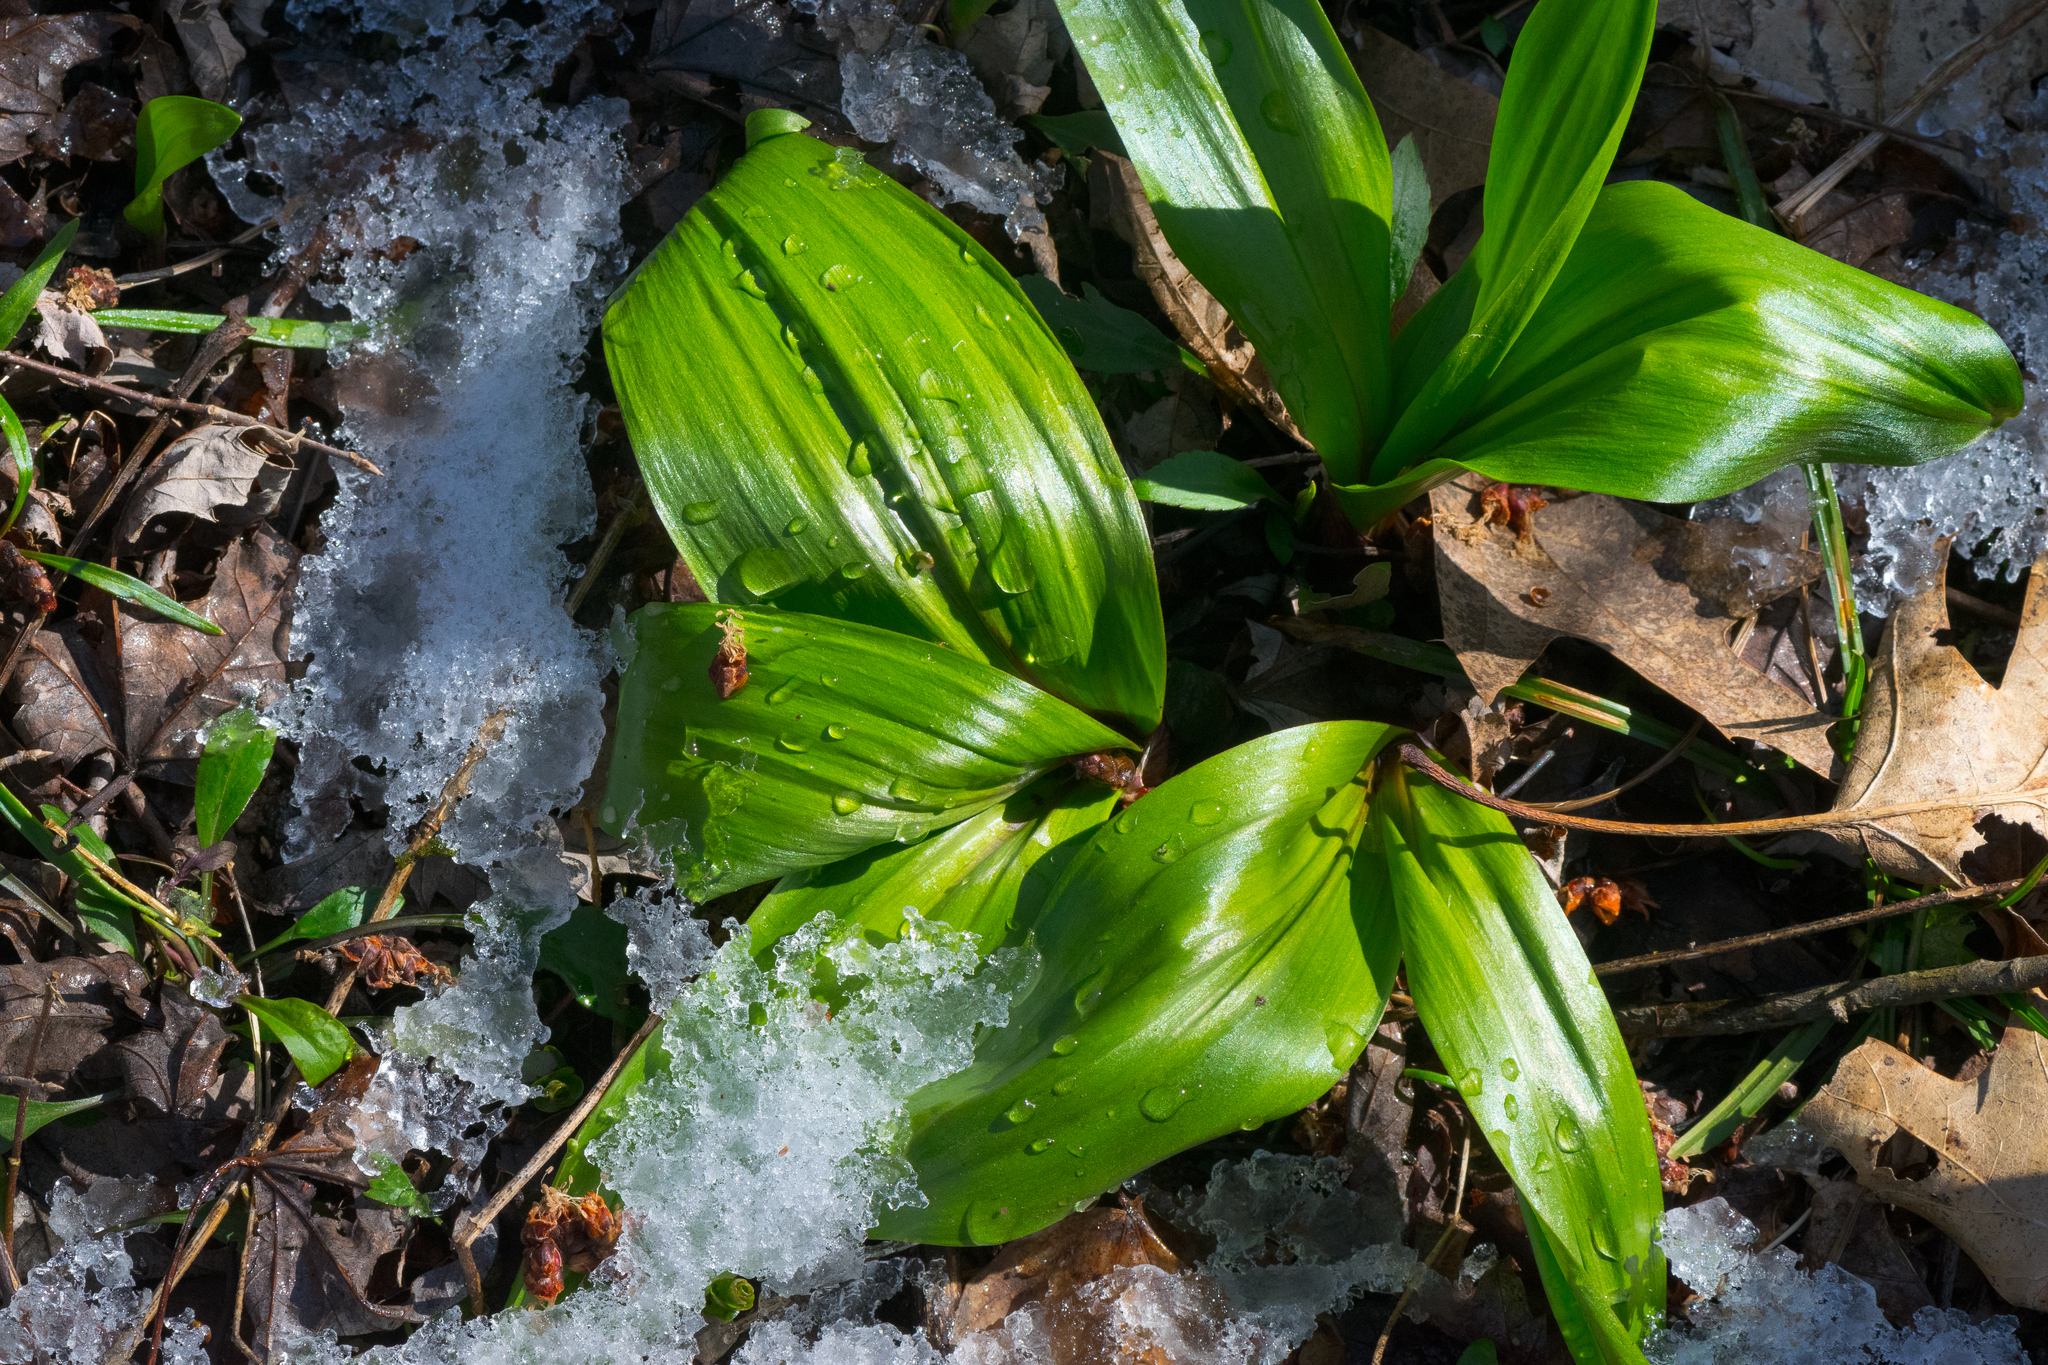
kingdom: Plantae
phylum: Tracheophyta
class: Liliopsida
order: Asparagales
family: Amaryllidaceae
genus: Allium
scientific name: Allium tricoccum
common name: Ramp
